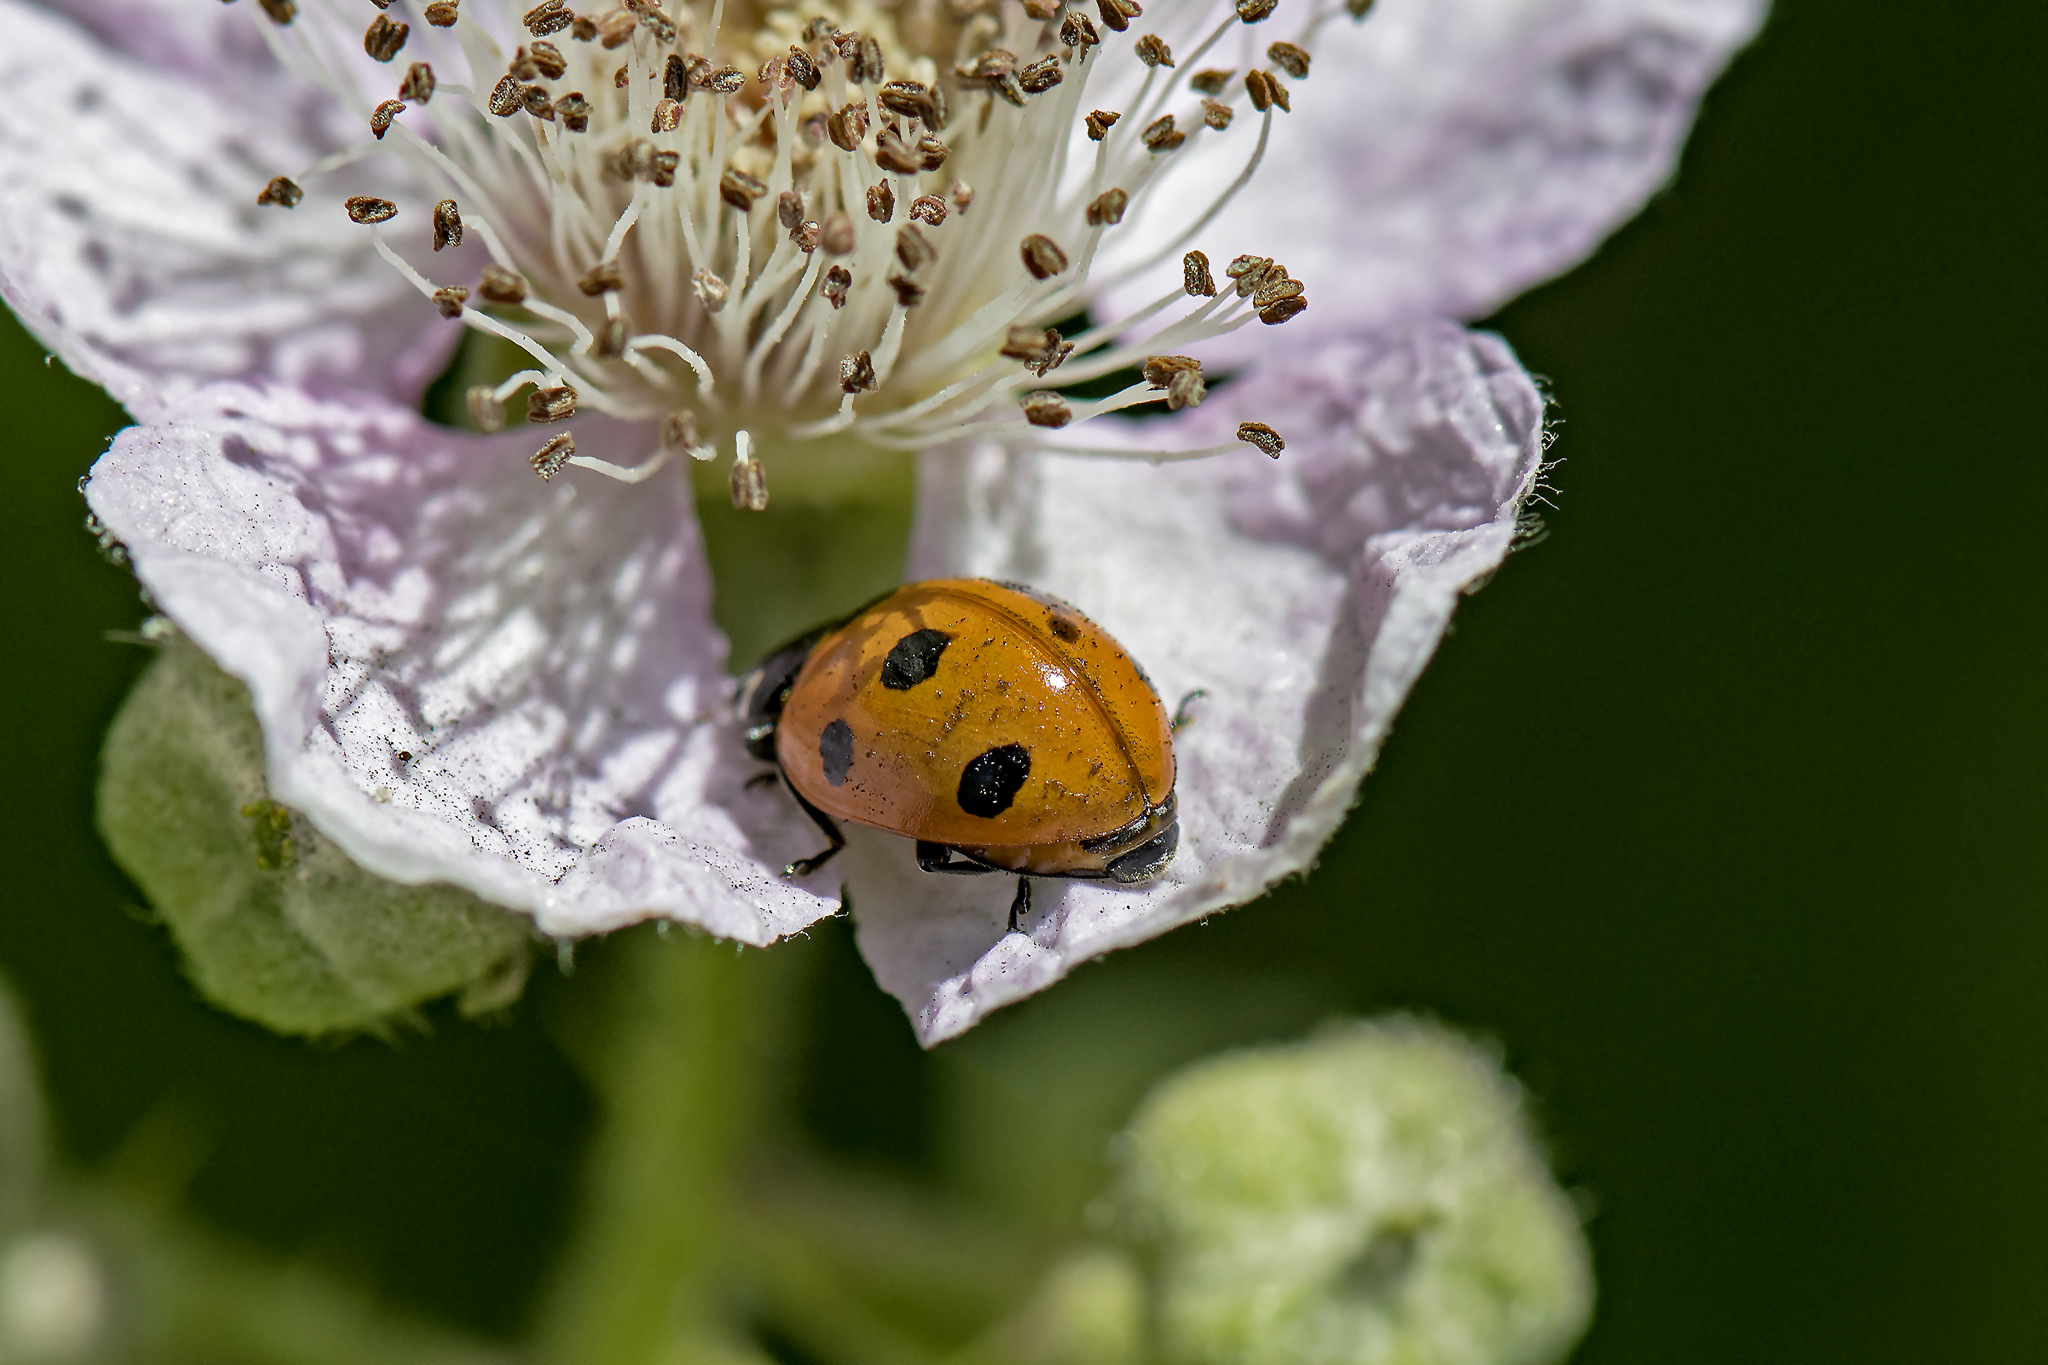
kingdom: Animalia
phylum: Arthropoda
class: Insecta
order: Coleoptera
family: Coccinellidae
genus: Coccinella
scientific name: Coccinella septempunctata
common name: Sevenspotted lady beetle
